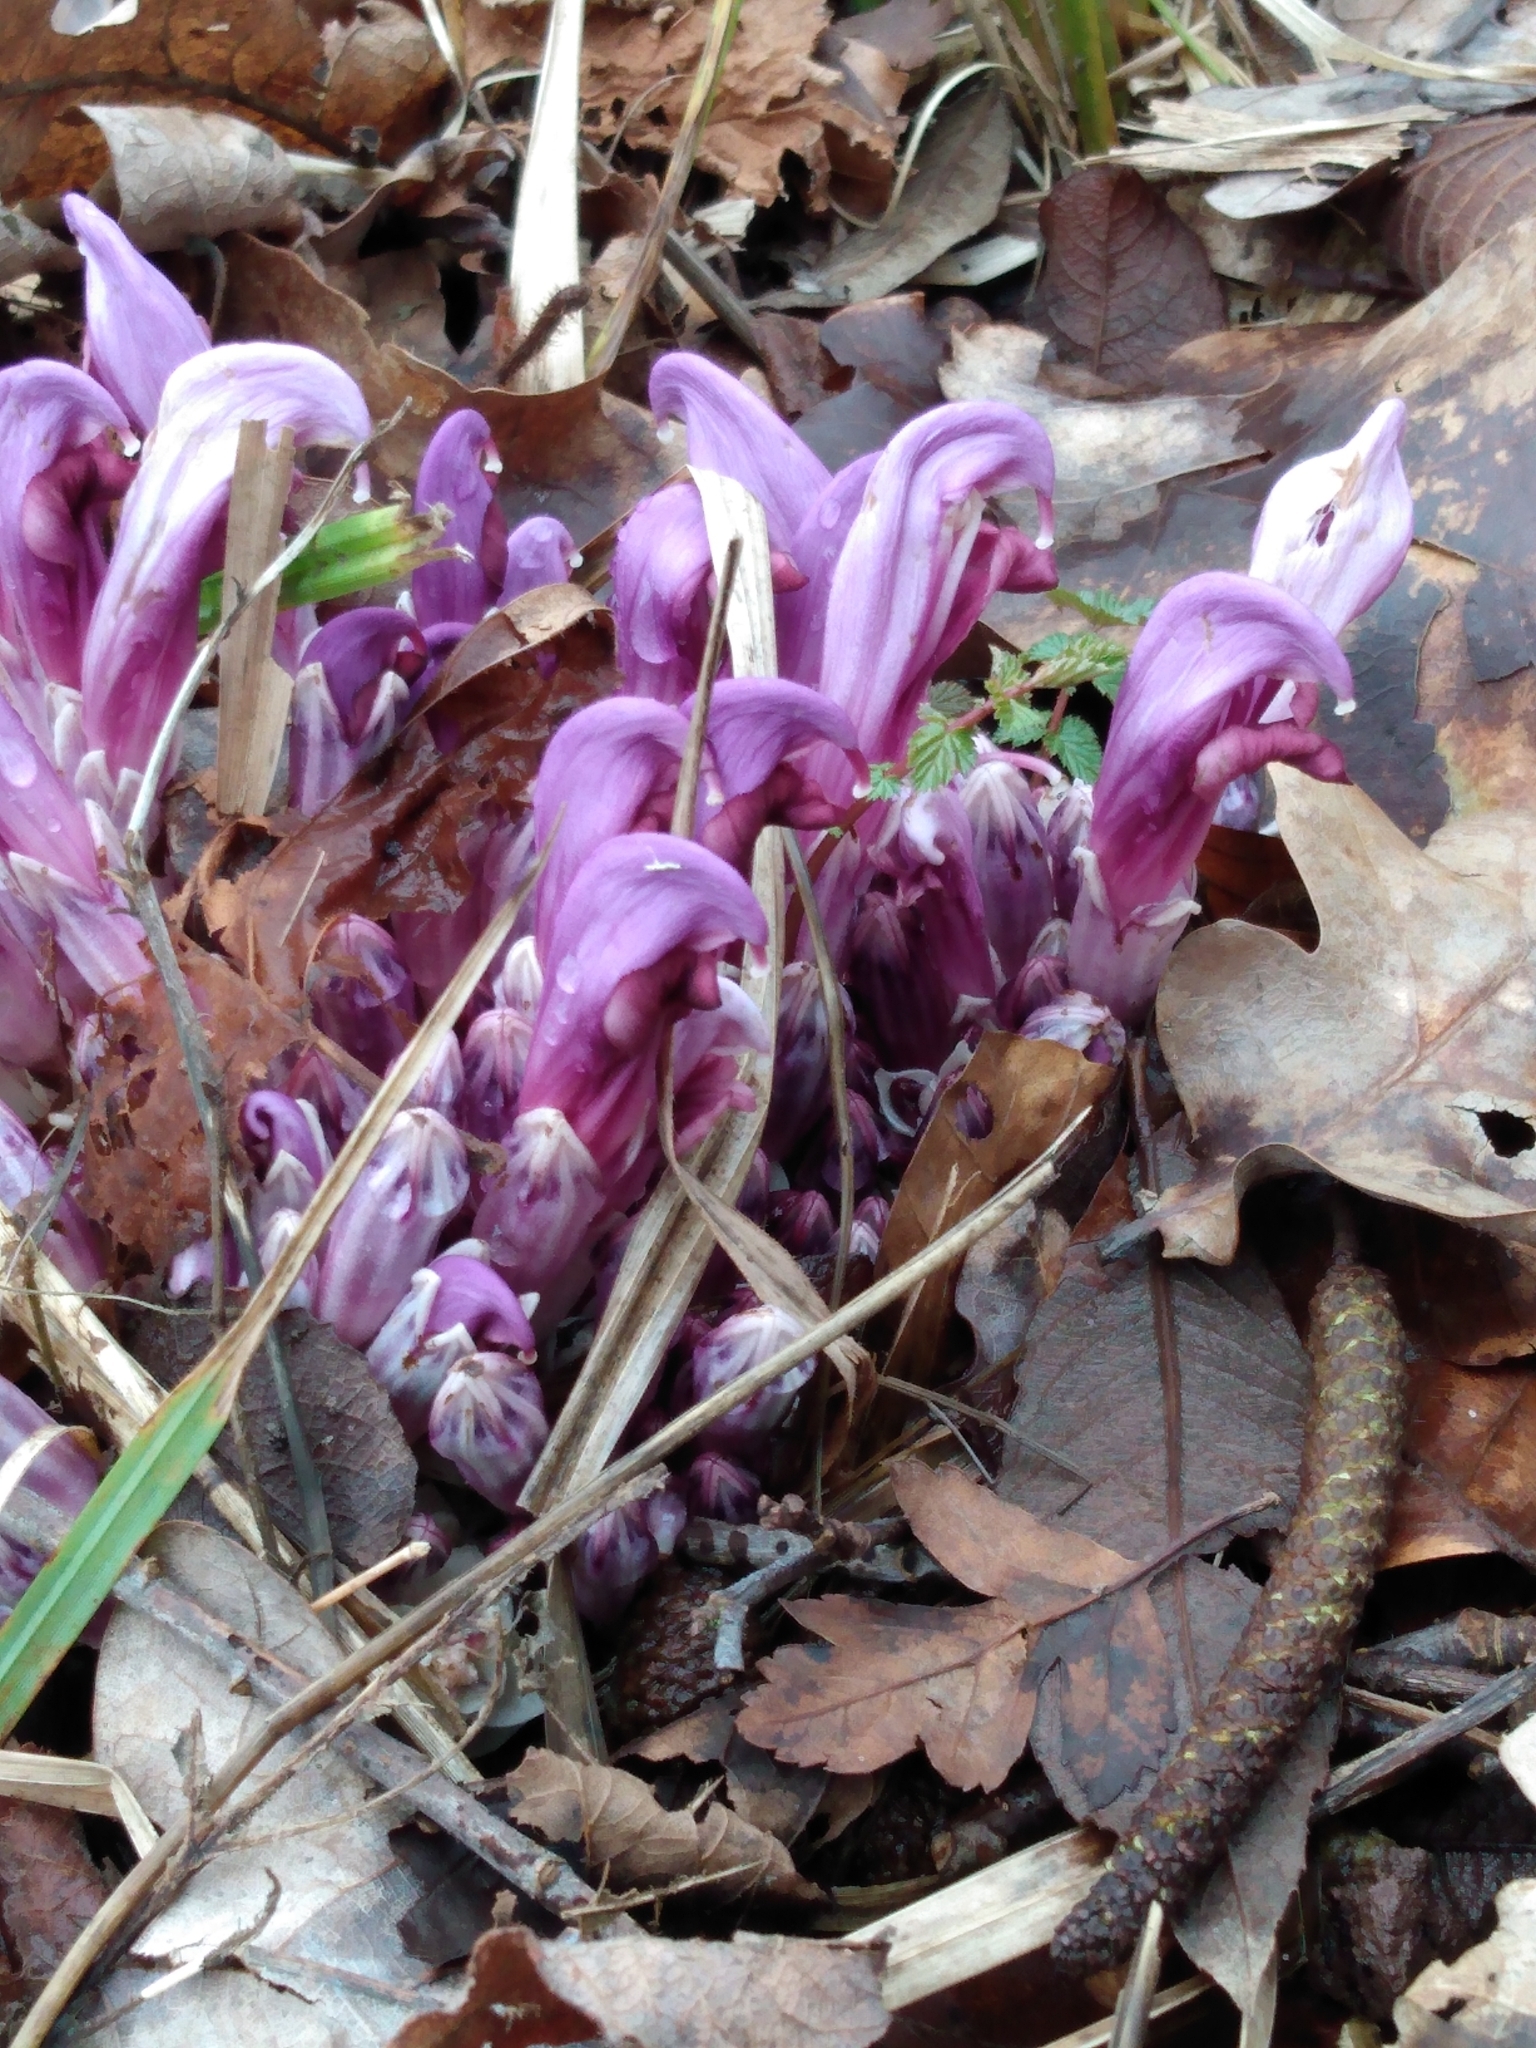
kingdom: Plantae
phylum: Tracheophyta
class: Magnoliopsida
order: Lamiales
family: Orobanchaceae
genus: Lathraea
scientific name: Lathraea clandestina
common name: Purple toothwort
